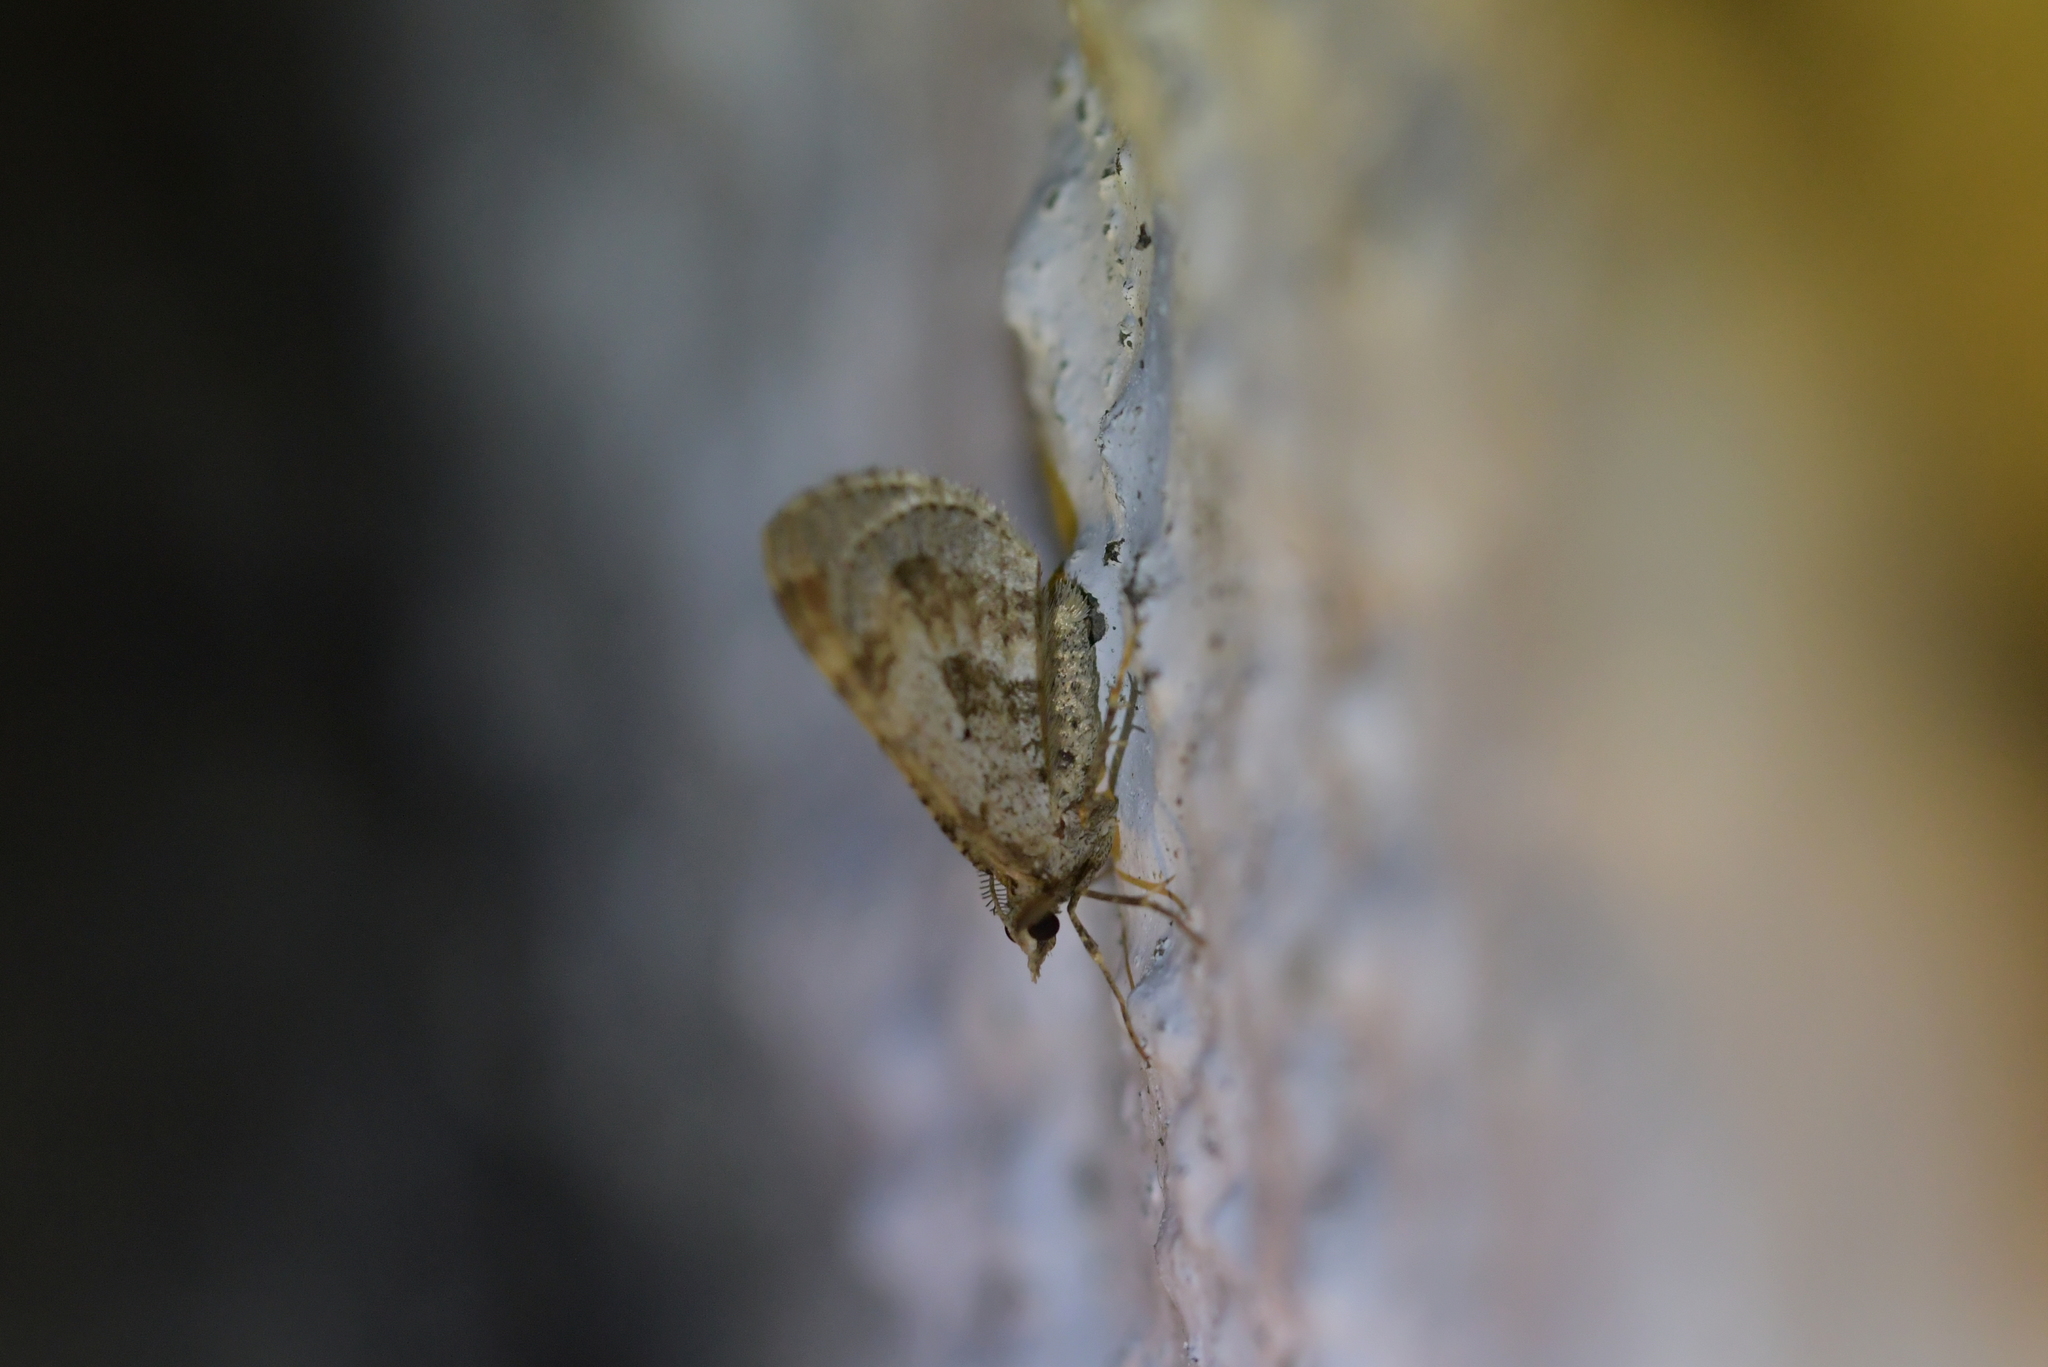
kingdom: Animalia
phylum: Arthropoda
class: Insecta
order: Lepidoptera
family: Geometridae
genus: Asaphodes
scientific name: Asaphodes aegrota
